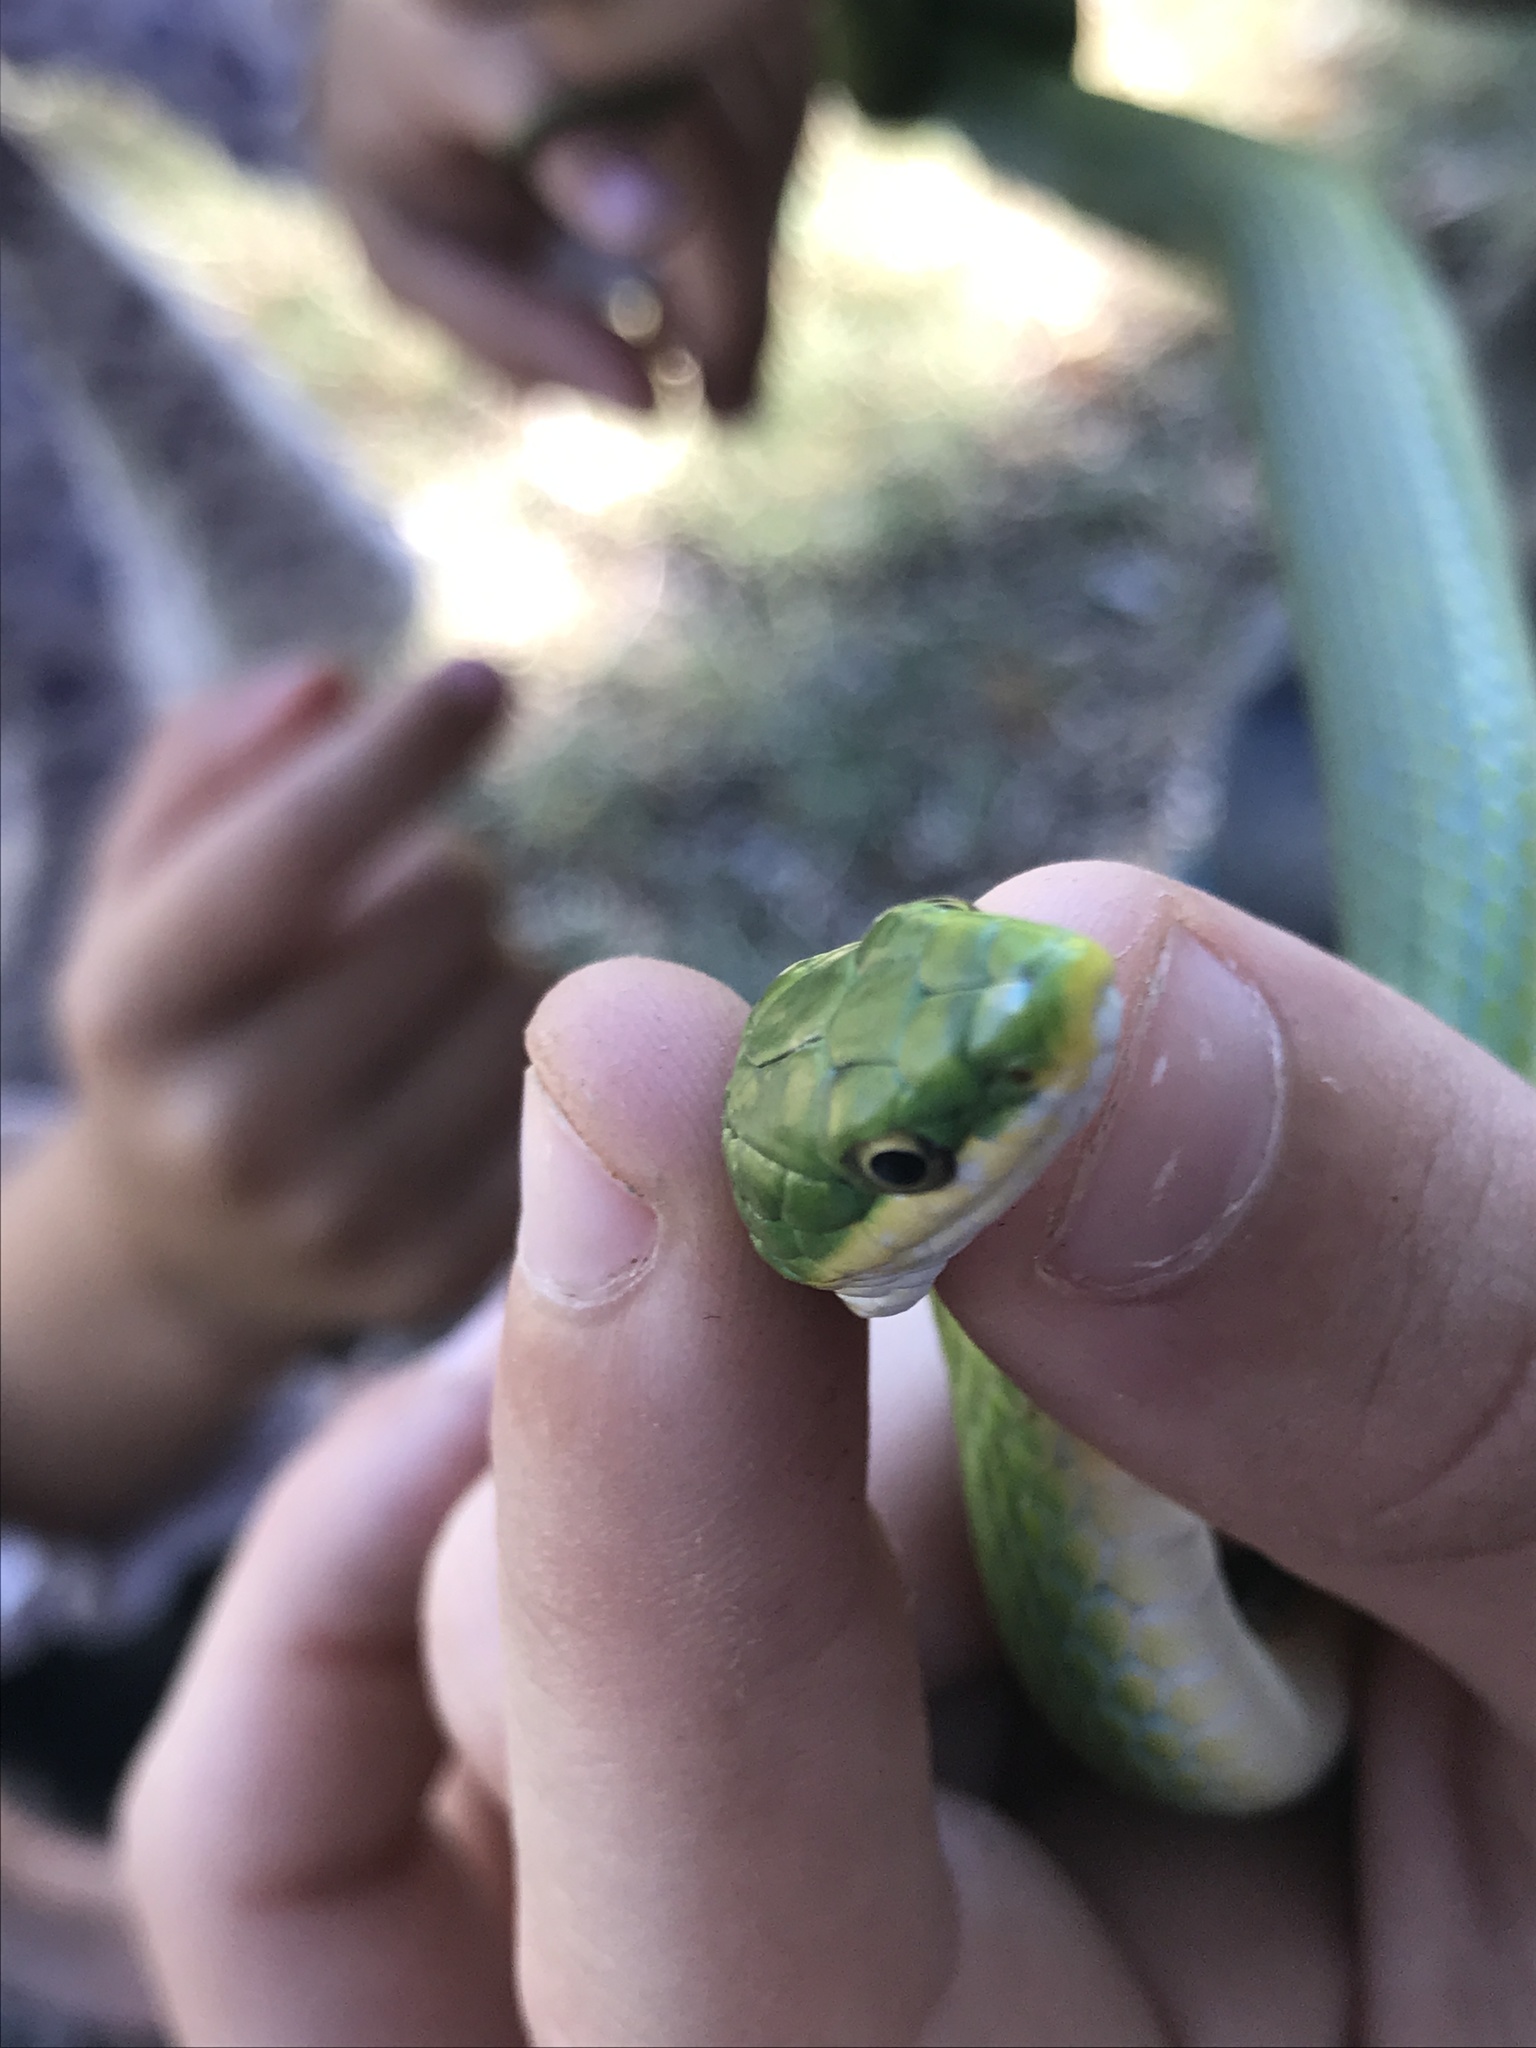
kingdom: Animalia
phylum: Chordata
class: Squamata
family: Colubridae
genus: Opheodrys
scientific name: Opheodrys aestivus
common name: Rough greensnake
